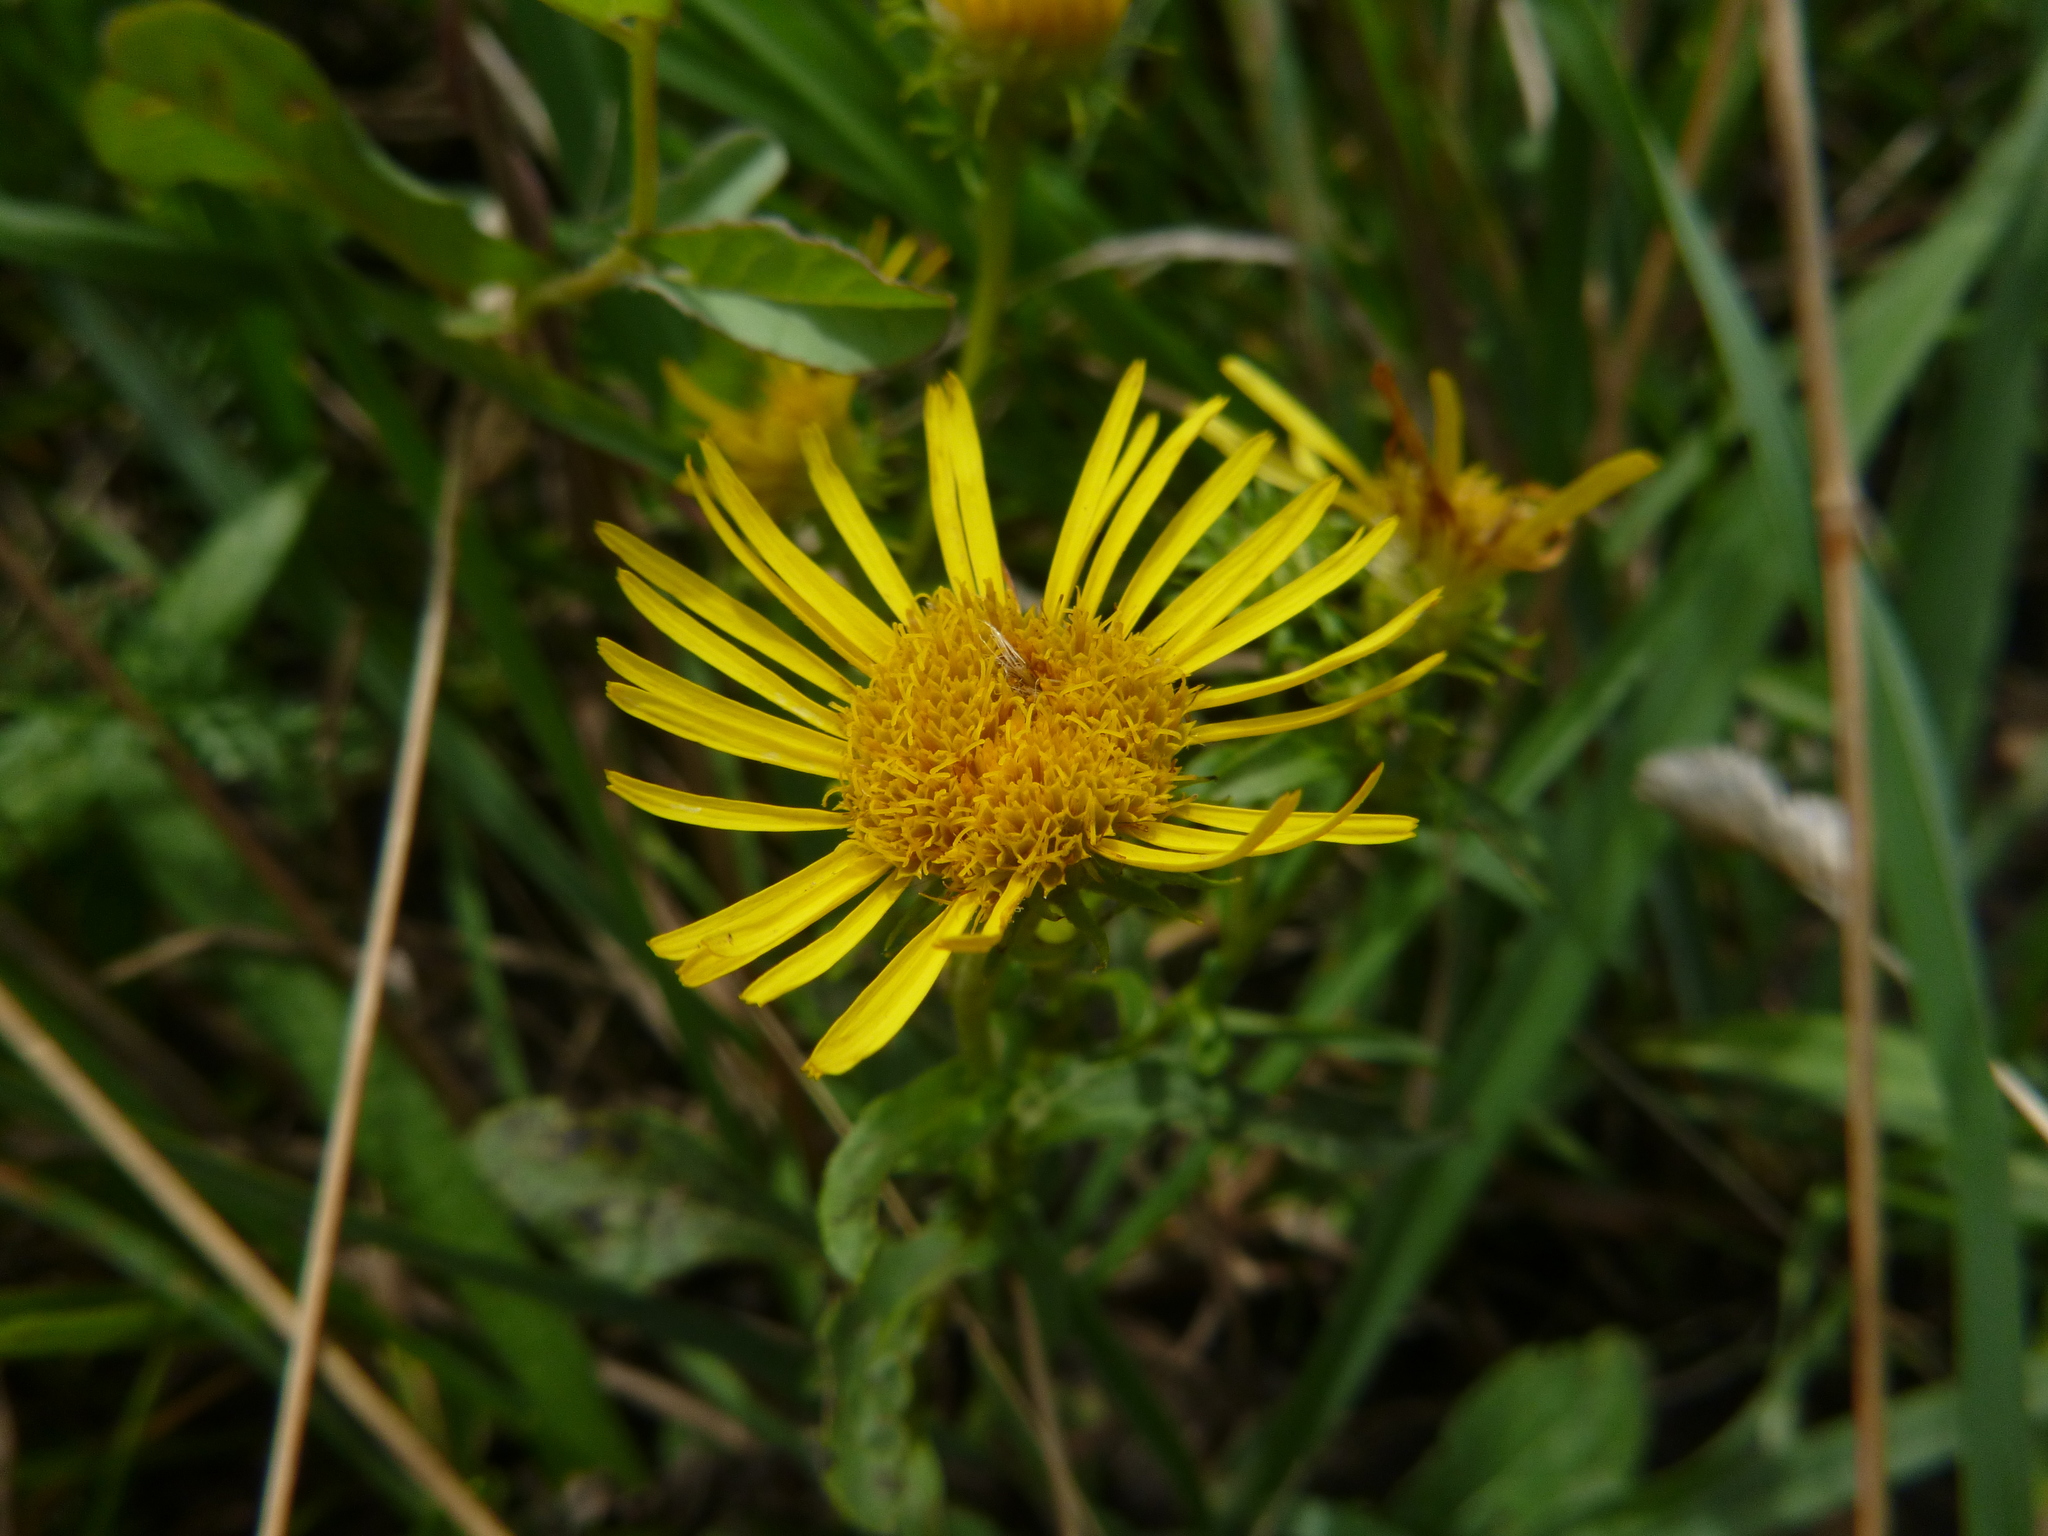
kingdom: Plantae
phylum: Tracheophyta
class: Magnoliopsida
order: Asterales
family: Asteraceae
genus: Pentanema
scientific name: Pentanema britannicum
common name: British elecampane
